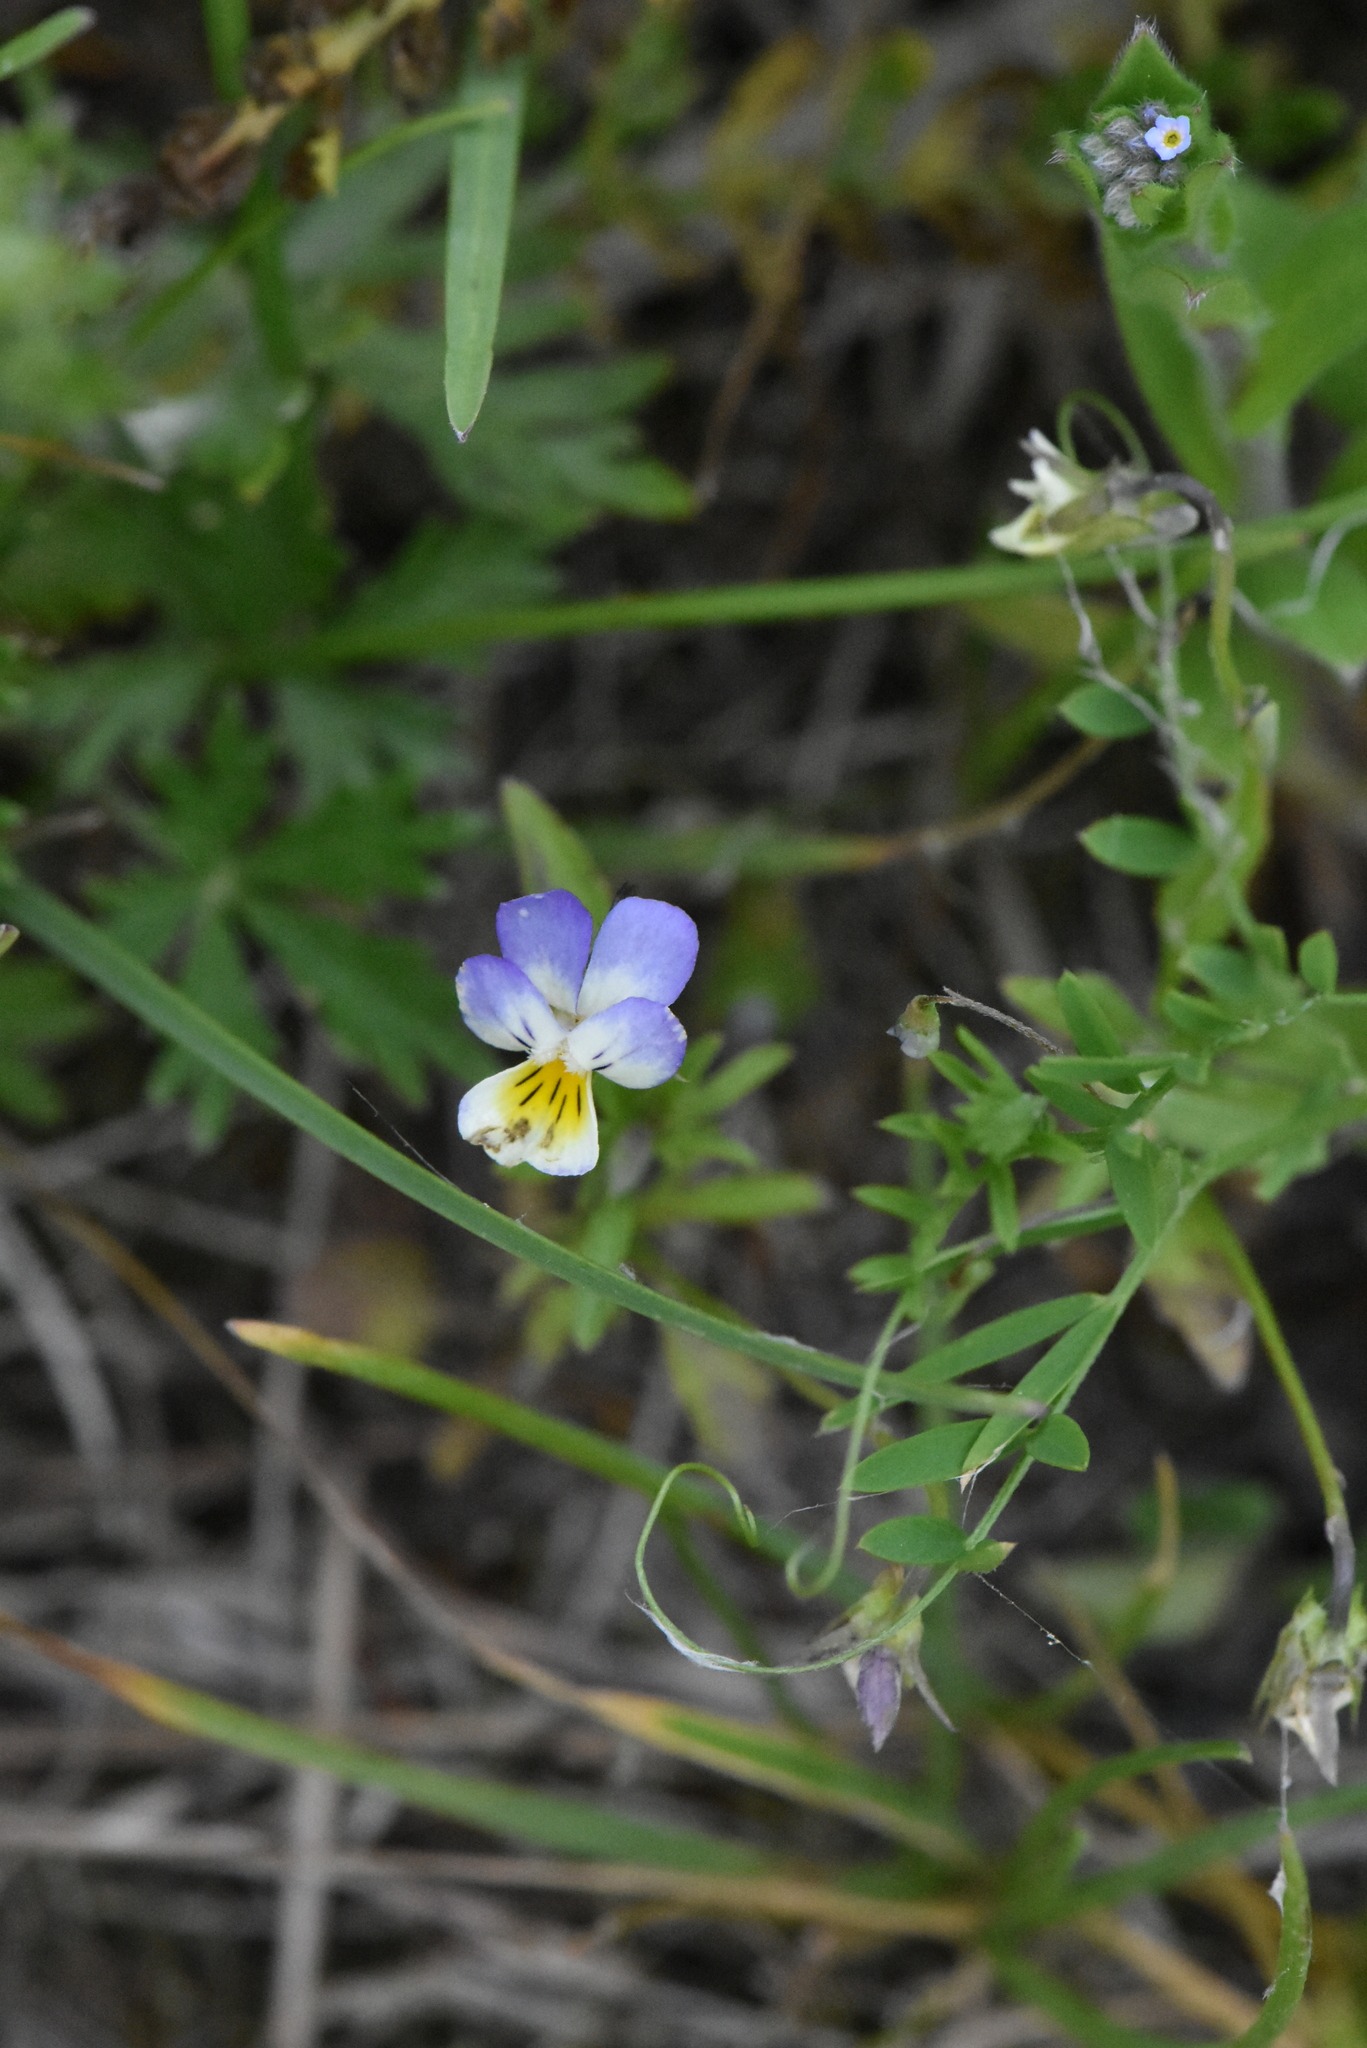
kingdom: Plantae
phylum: Tracheophyta
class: Magnoliopsida
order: Malpighiales
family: Violaceae
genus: Viola
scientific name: Viola tricolor
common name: Pansy
